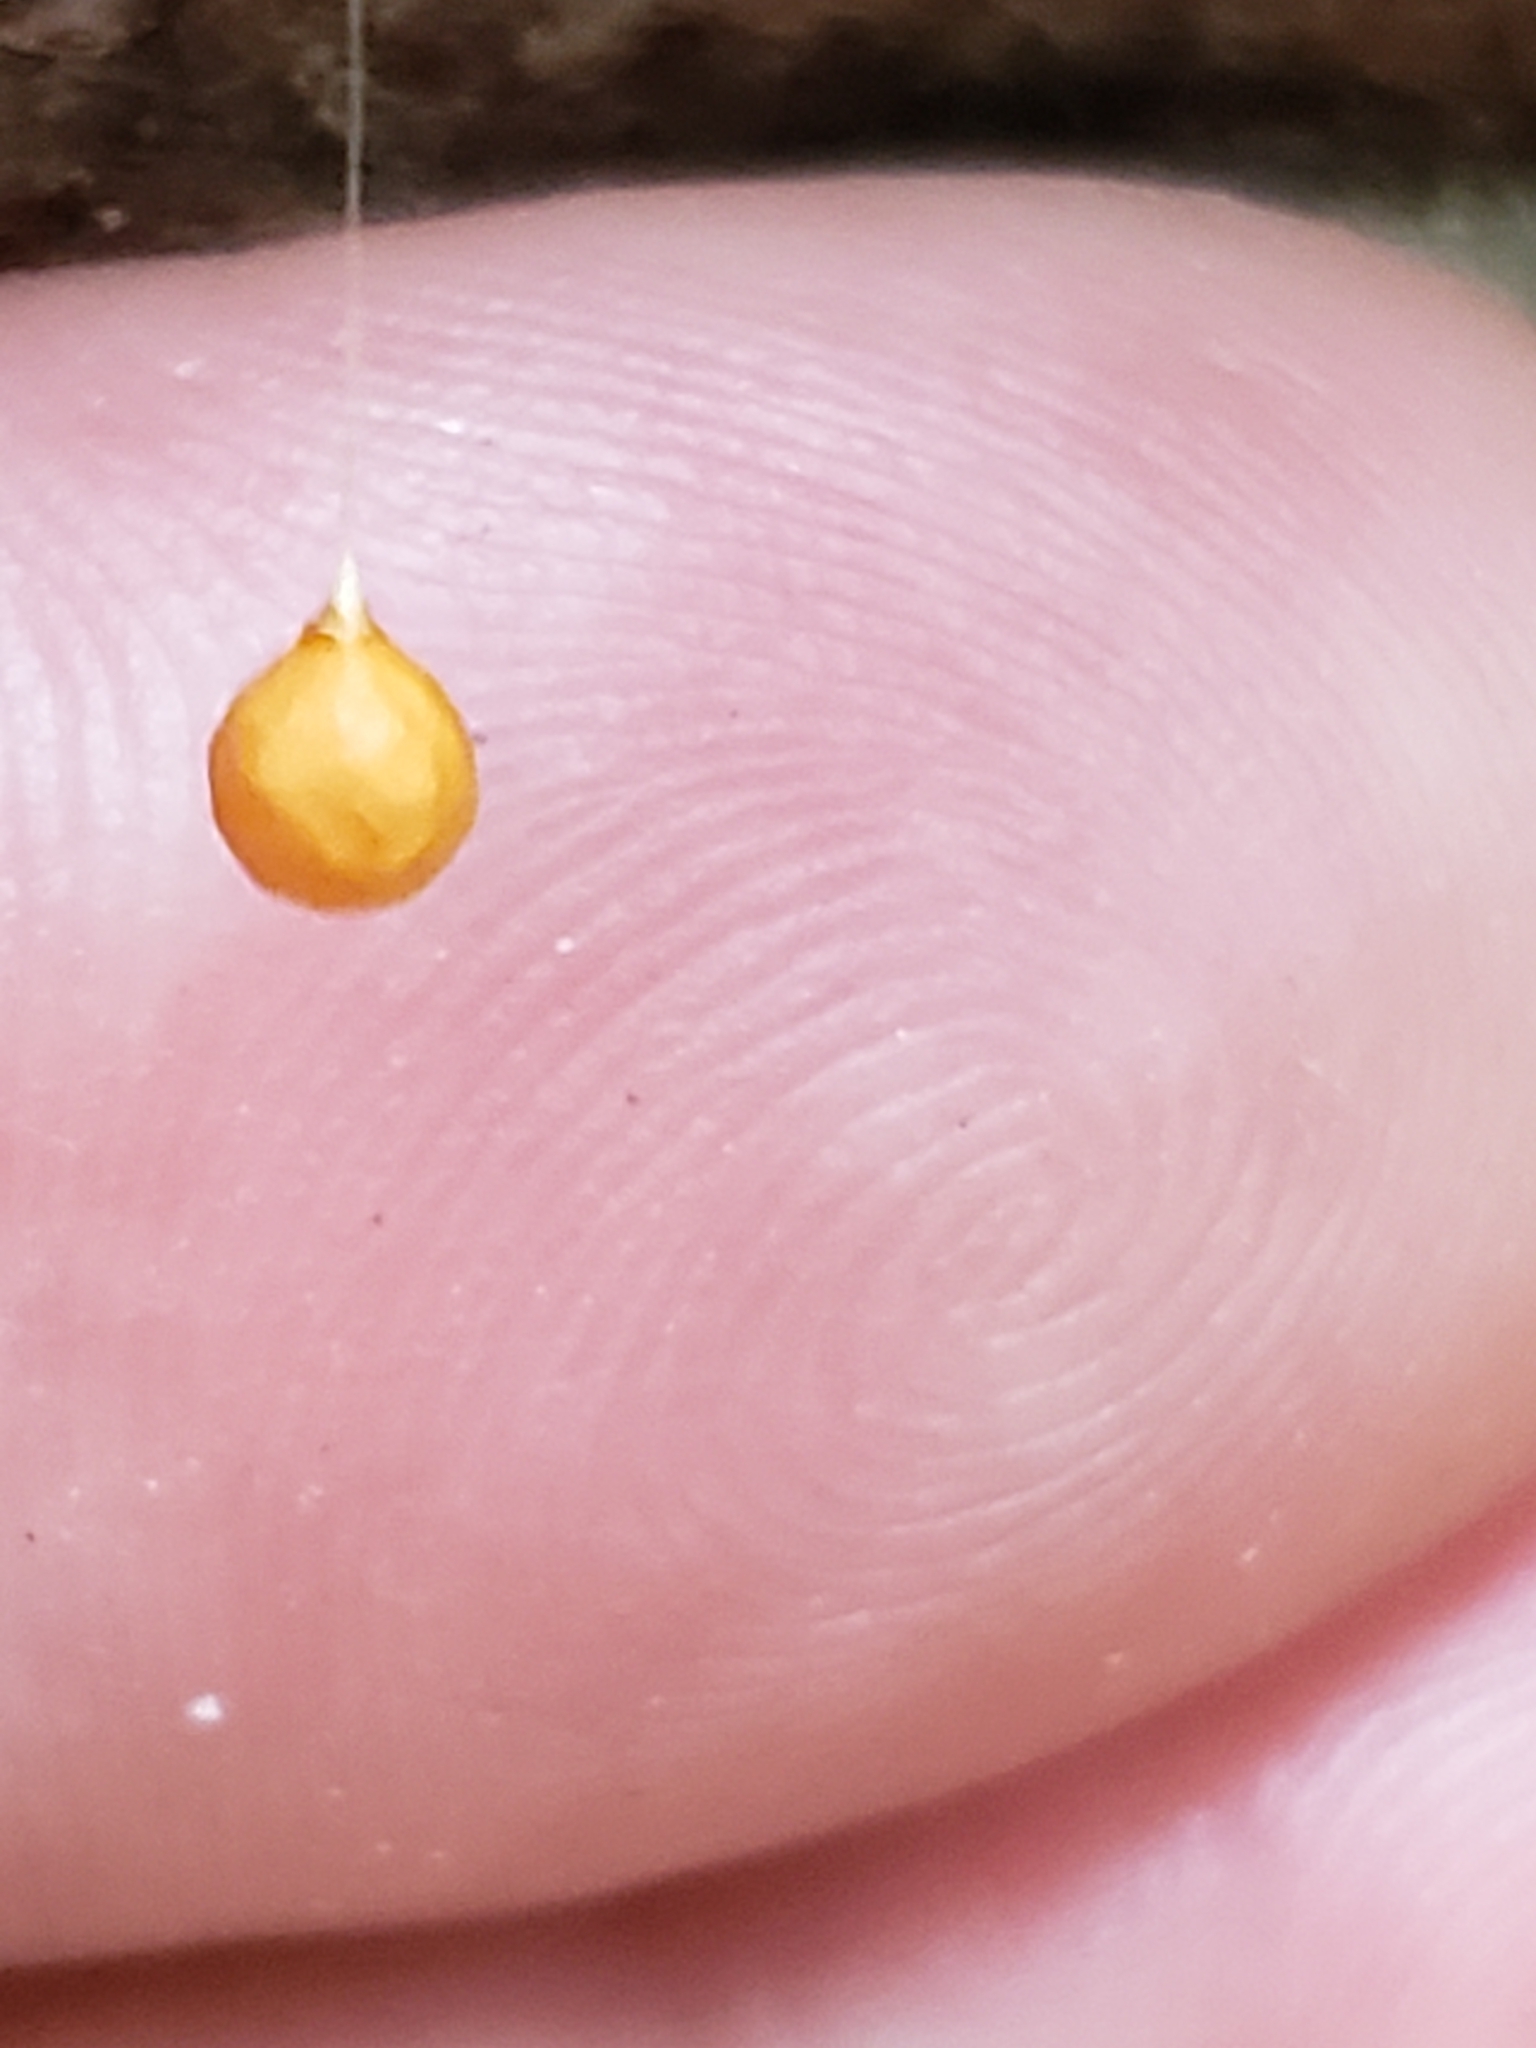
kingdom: Animalia
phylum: Arthropoda
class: Arachnida
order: Araneae
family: Theridiosomatidae
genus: Theridiosoma
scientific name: Theridiosoma gemmosum
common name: Ray spider
